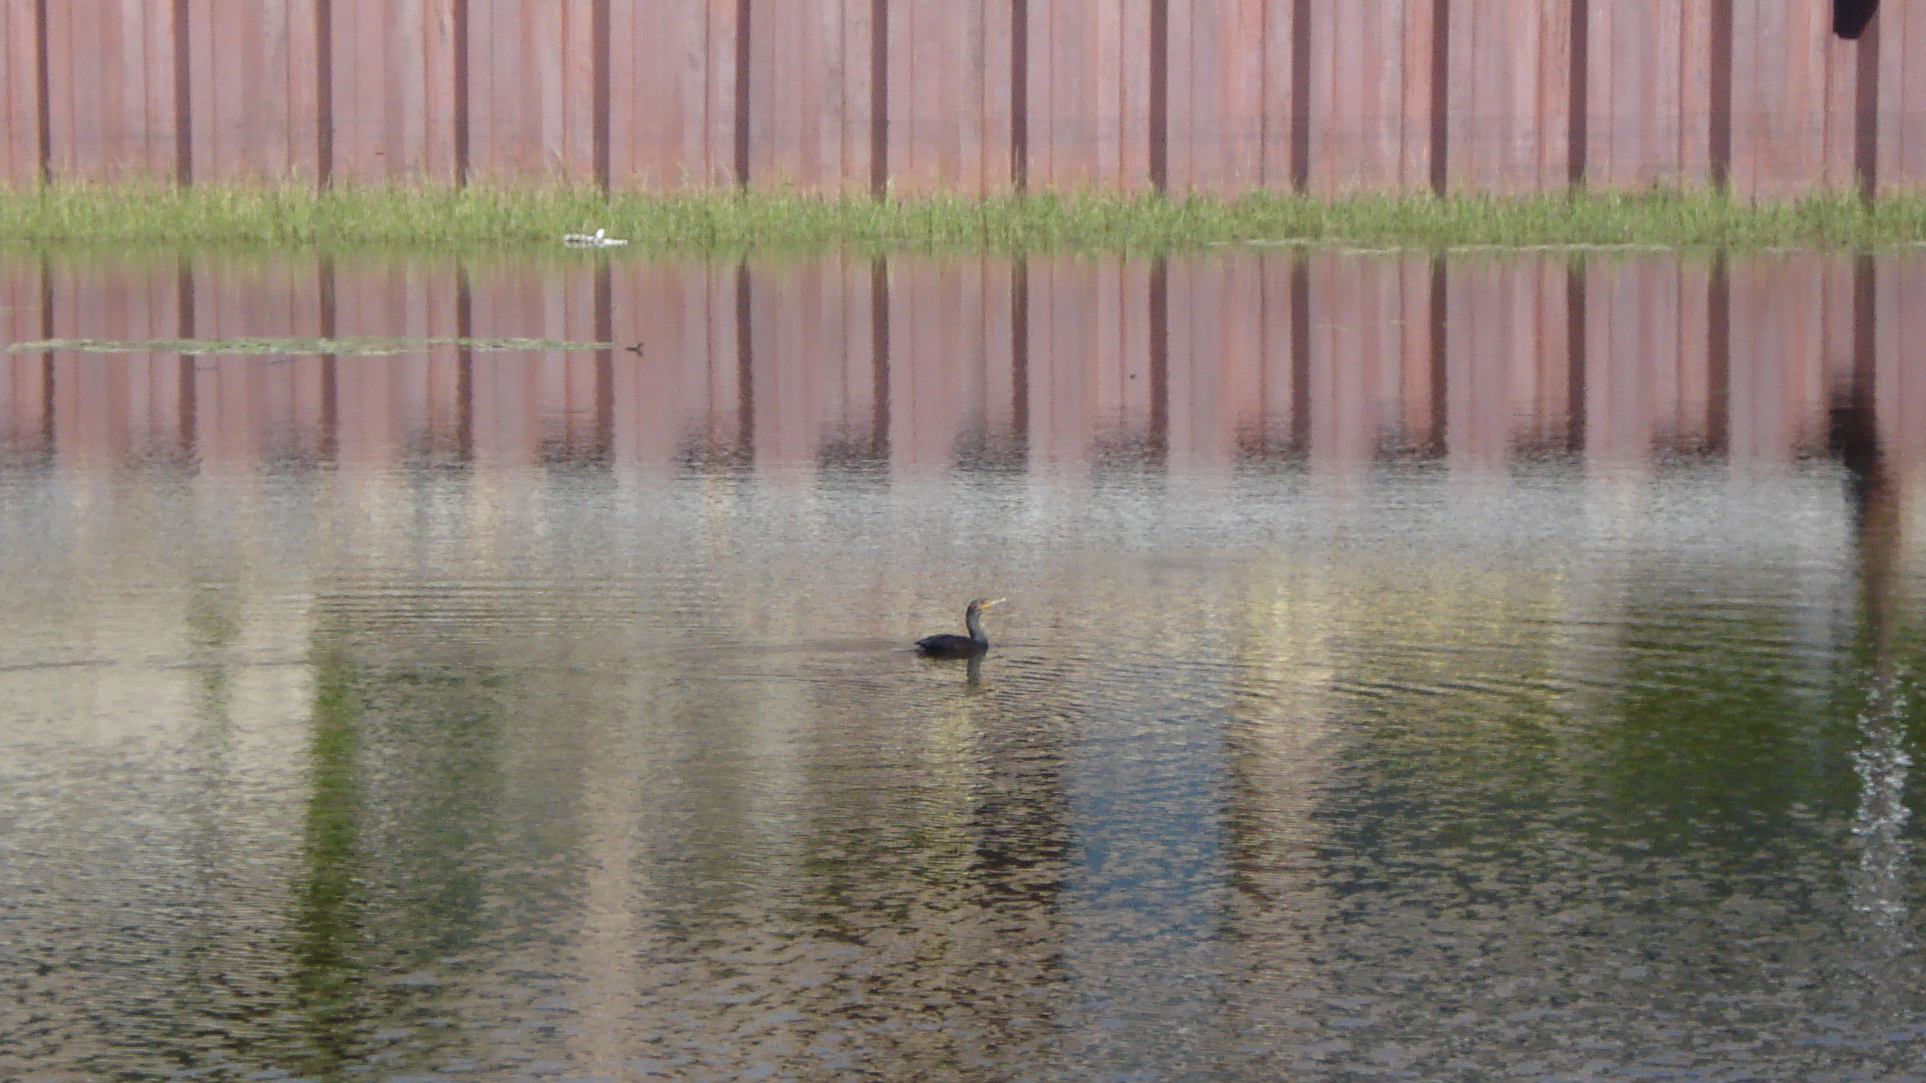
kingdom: Animalia
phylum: Chordata
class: Aves
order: Suliformes
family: Phalacrocoracidae
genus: Phalacrocorax
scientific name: Phalacrocorax auritus
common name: Double-crested cormorant
